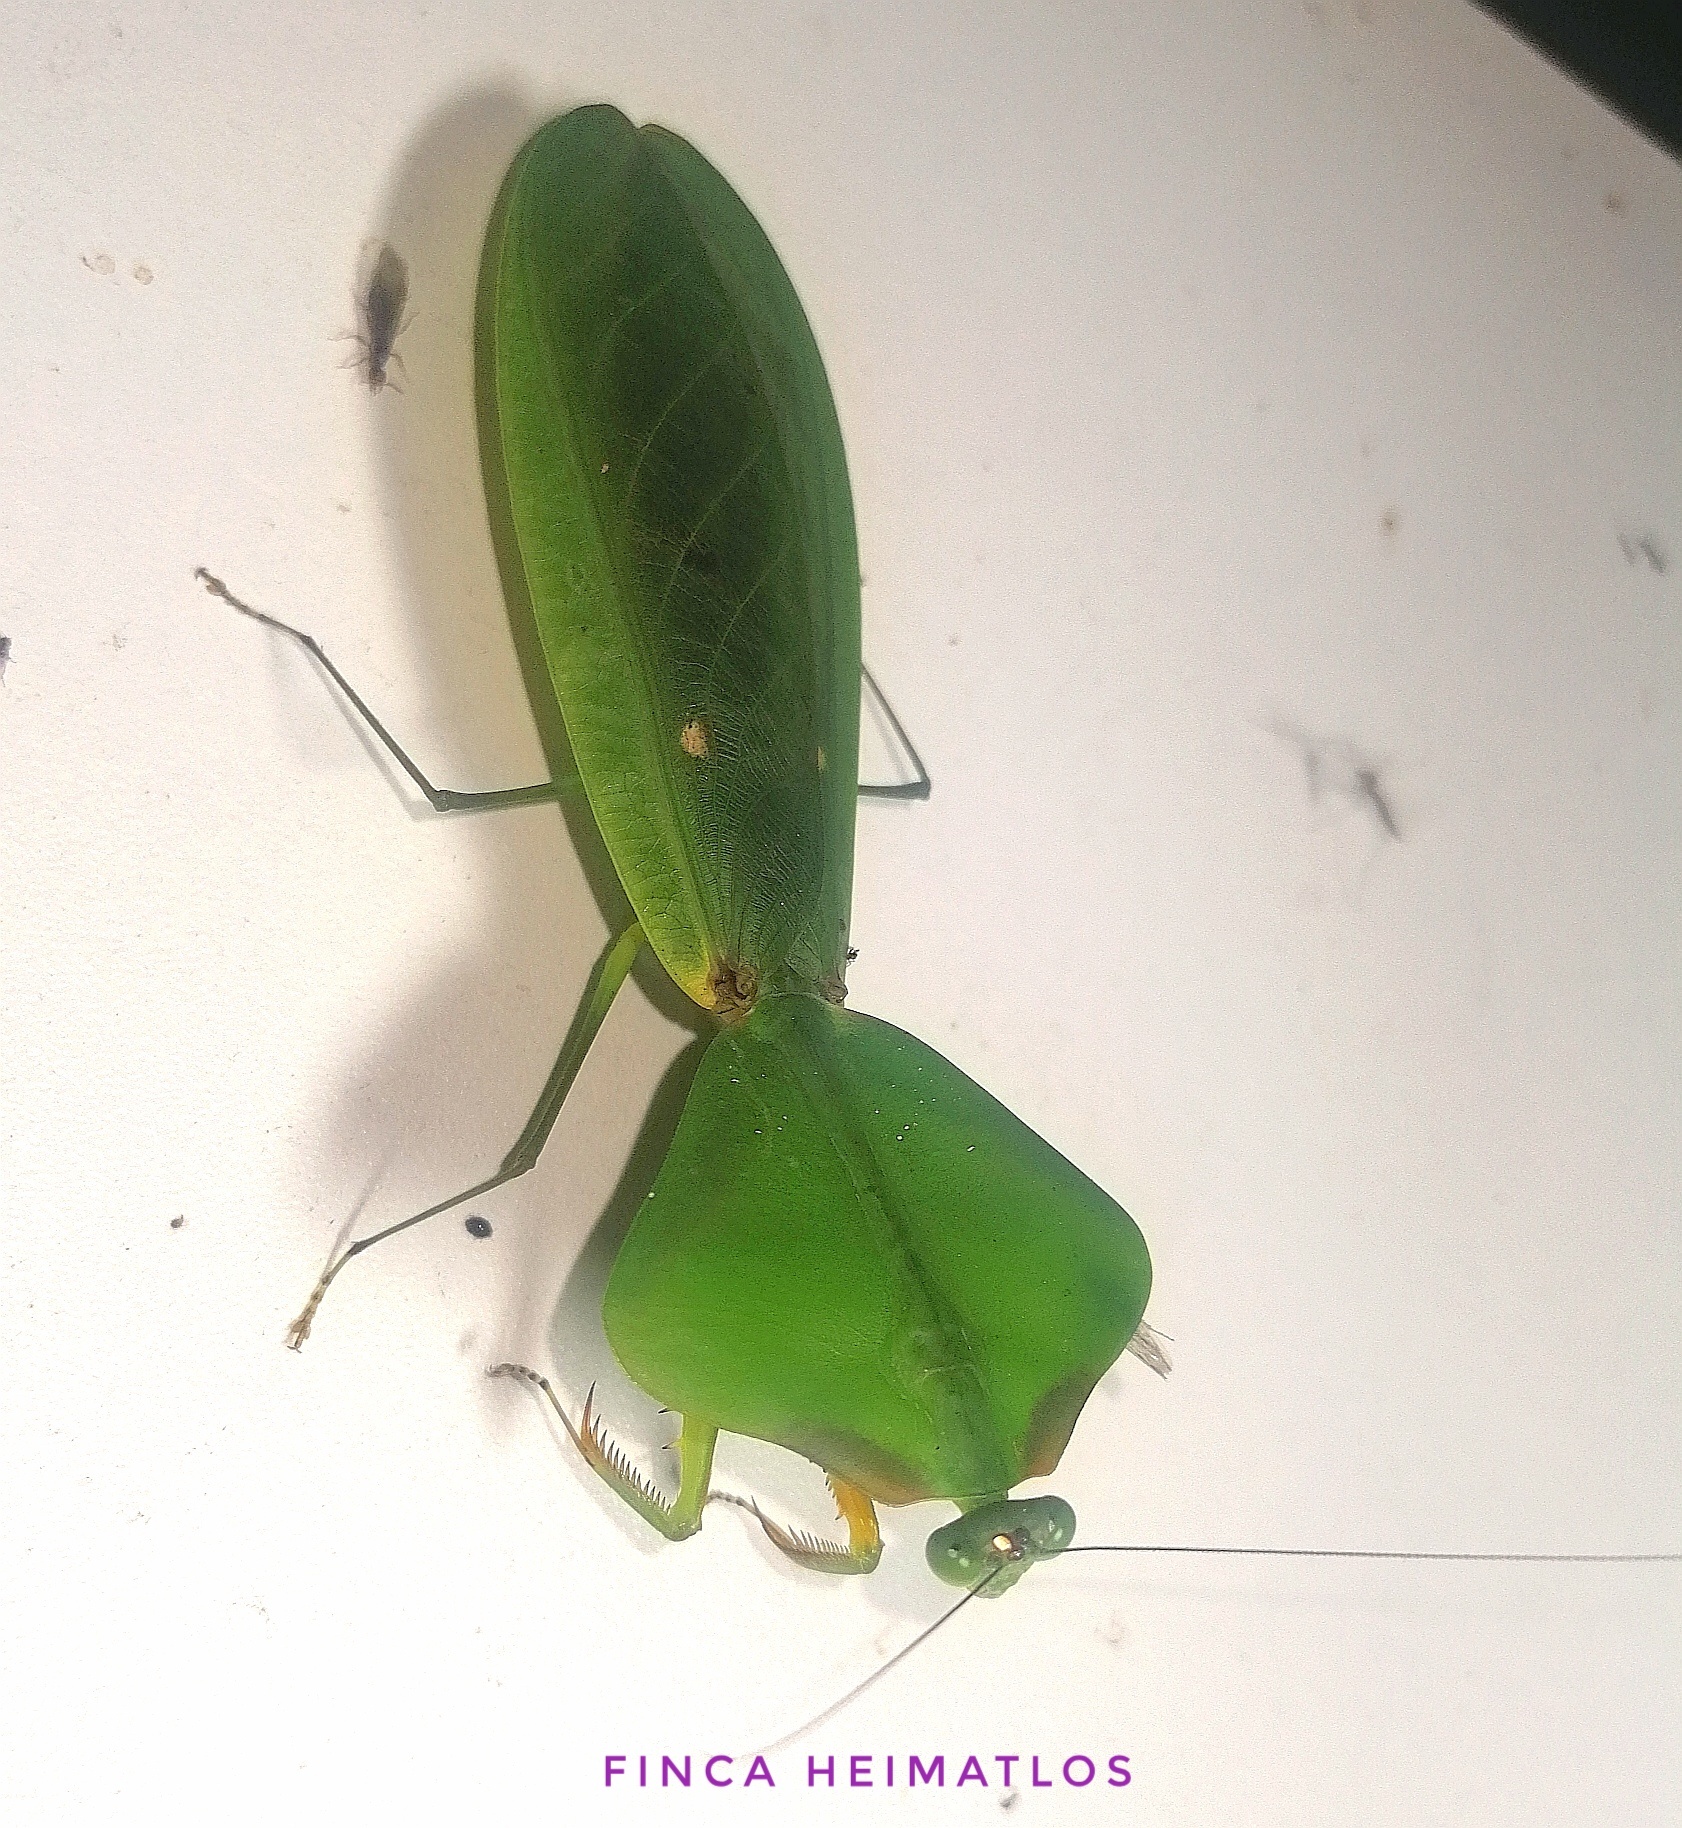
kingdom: Animalia
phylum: Arthropoda
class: Insecta
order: Mantodea
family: Mantidae
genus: Choeradodis
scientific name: Choeradodis stalii
